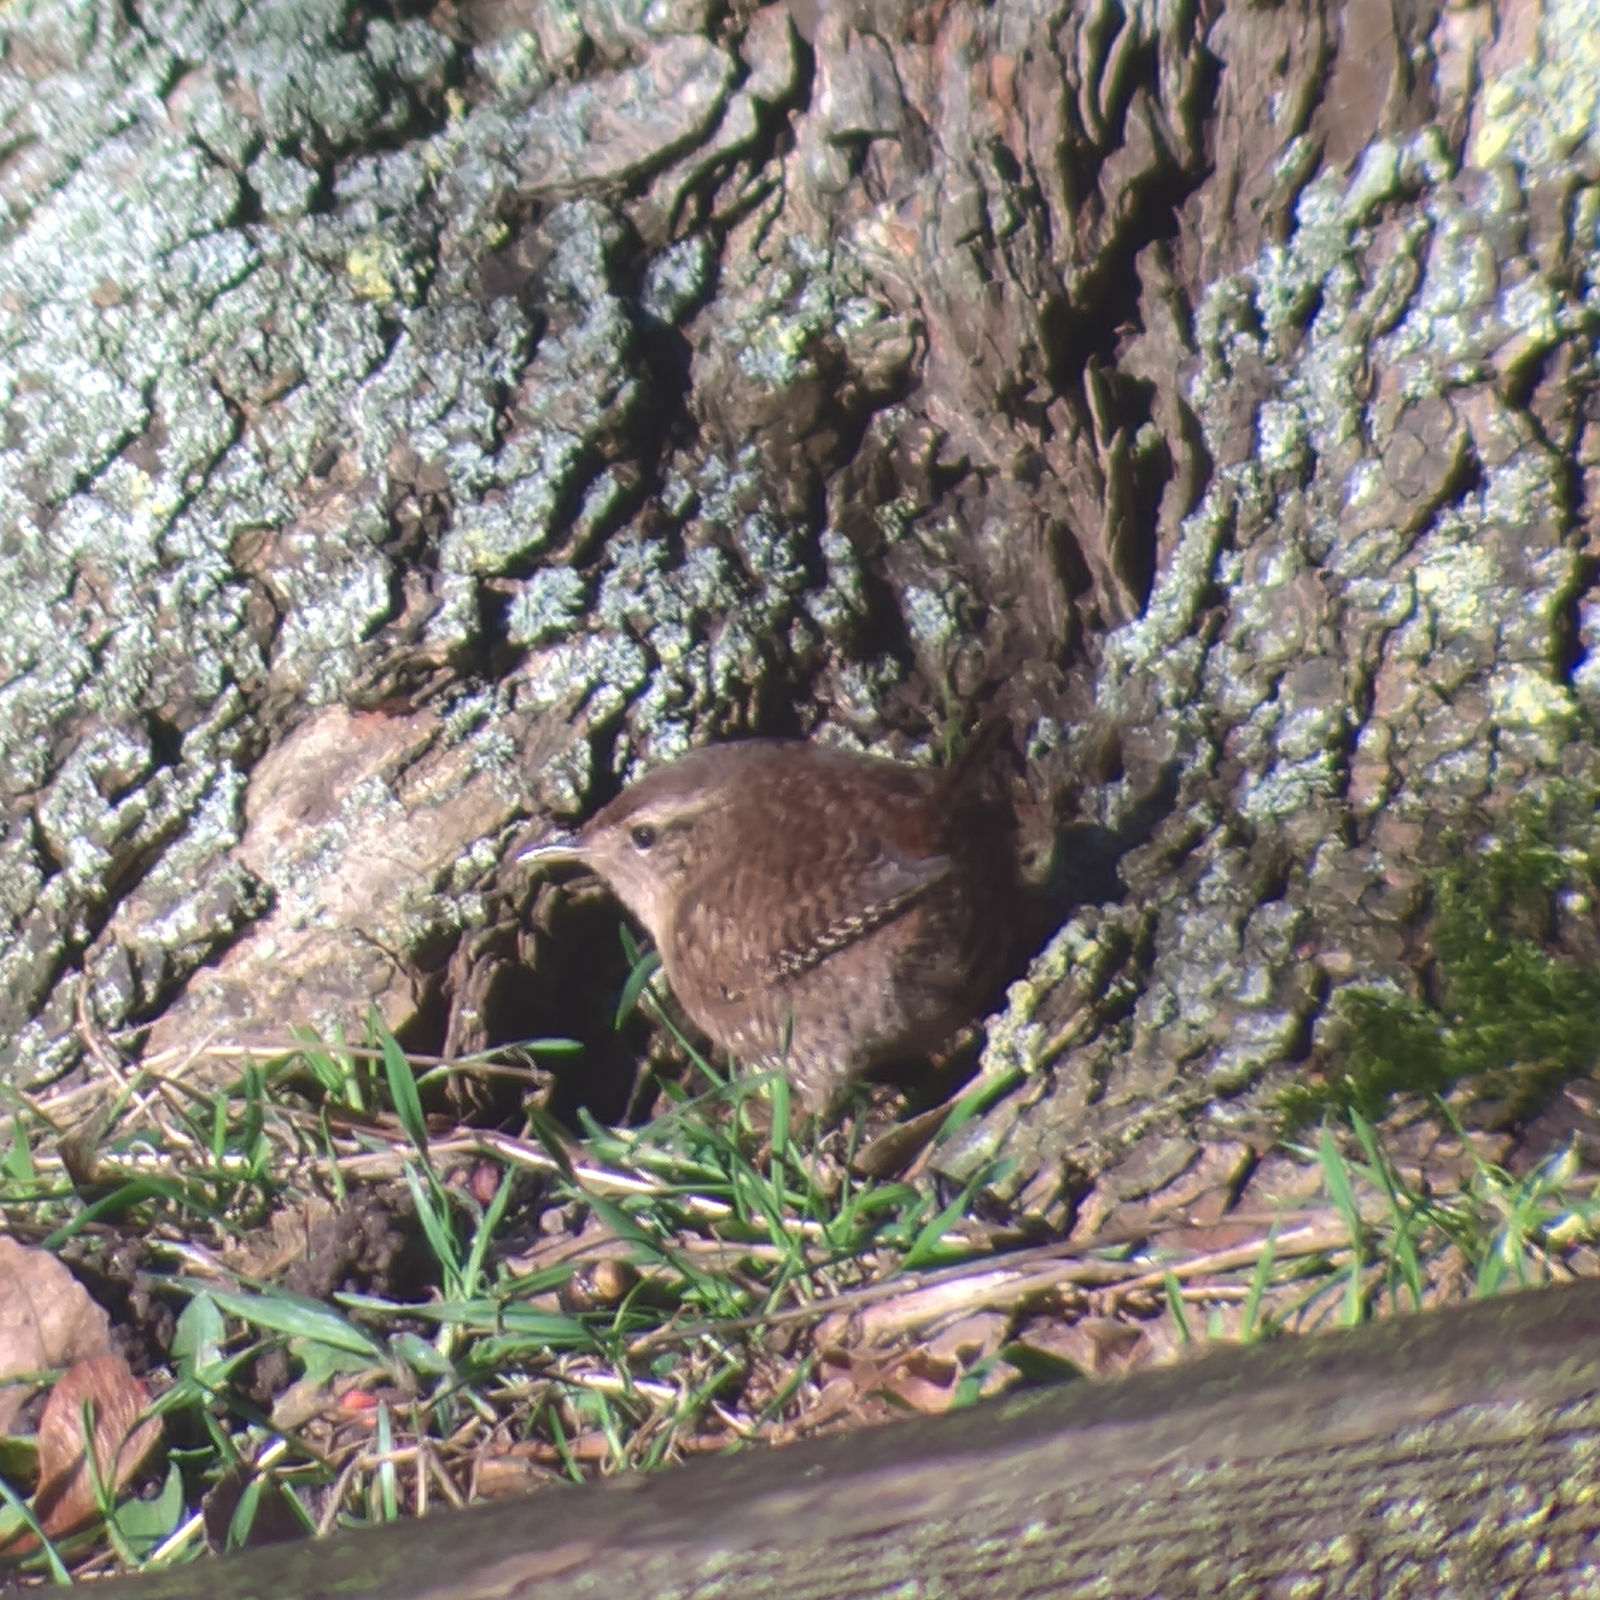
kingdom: Animalia
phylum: Chordata
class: Aves
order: Passeriformes
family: Troglodytidae
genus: Troglodytes
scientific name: Troglodytes troglodytes
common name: Eurasian wren
